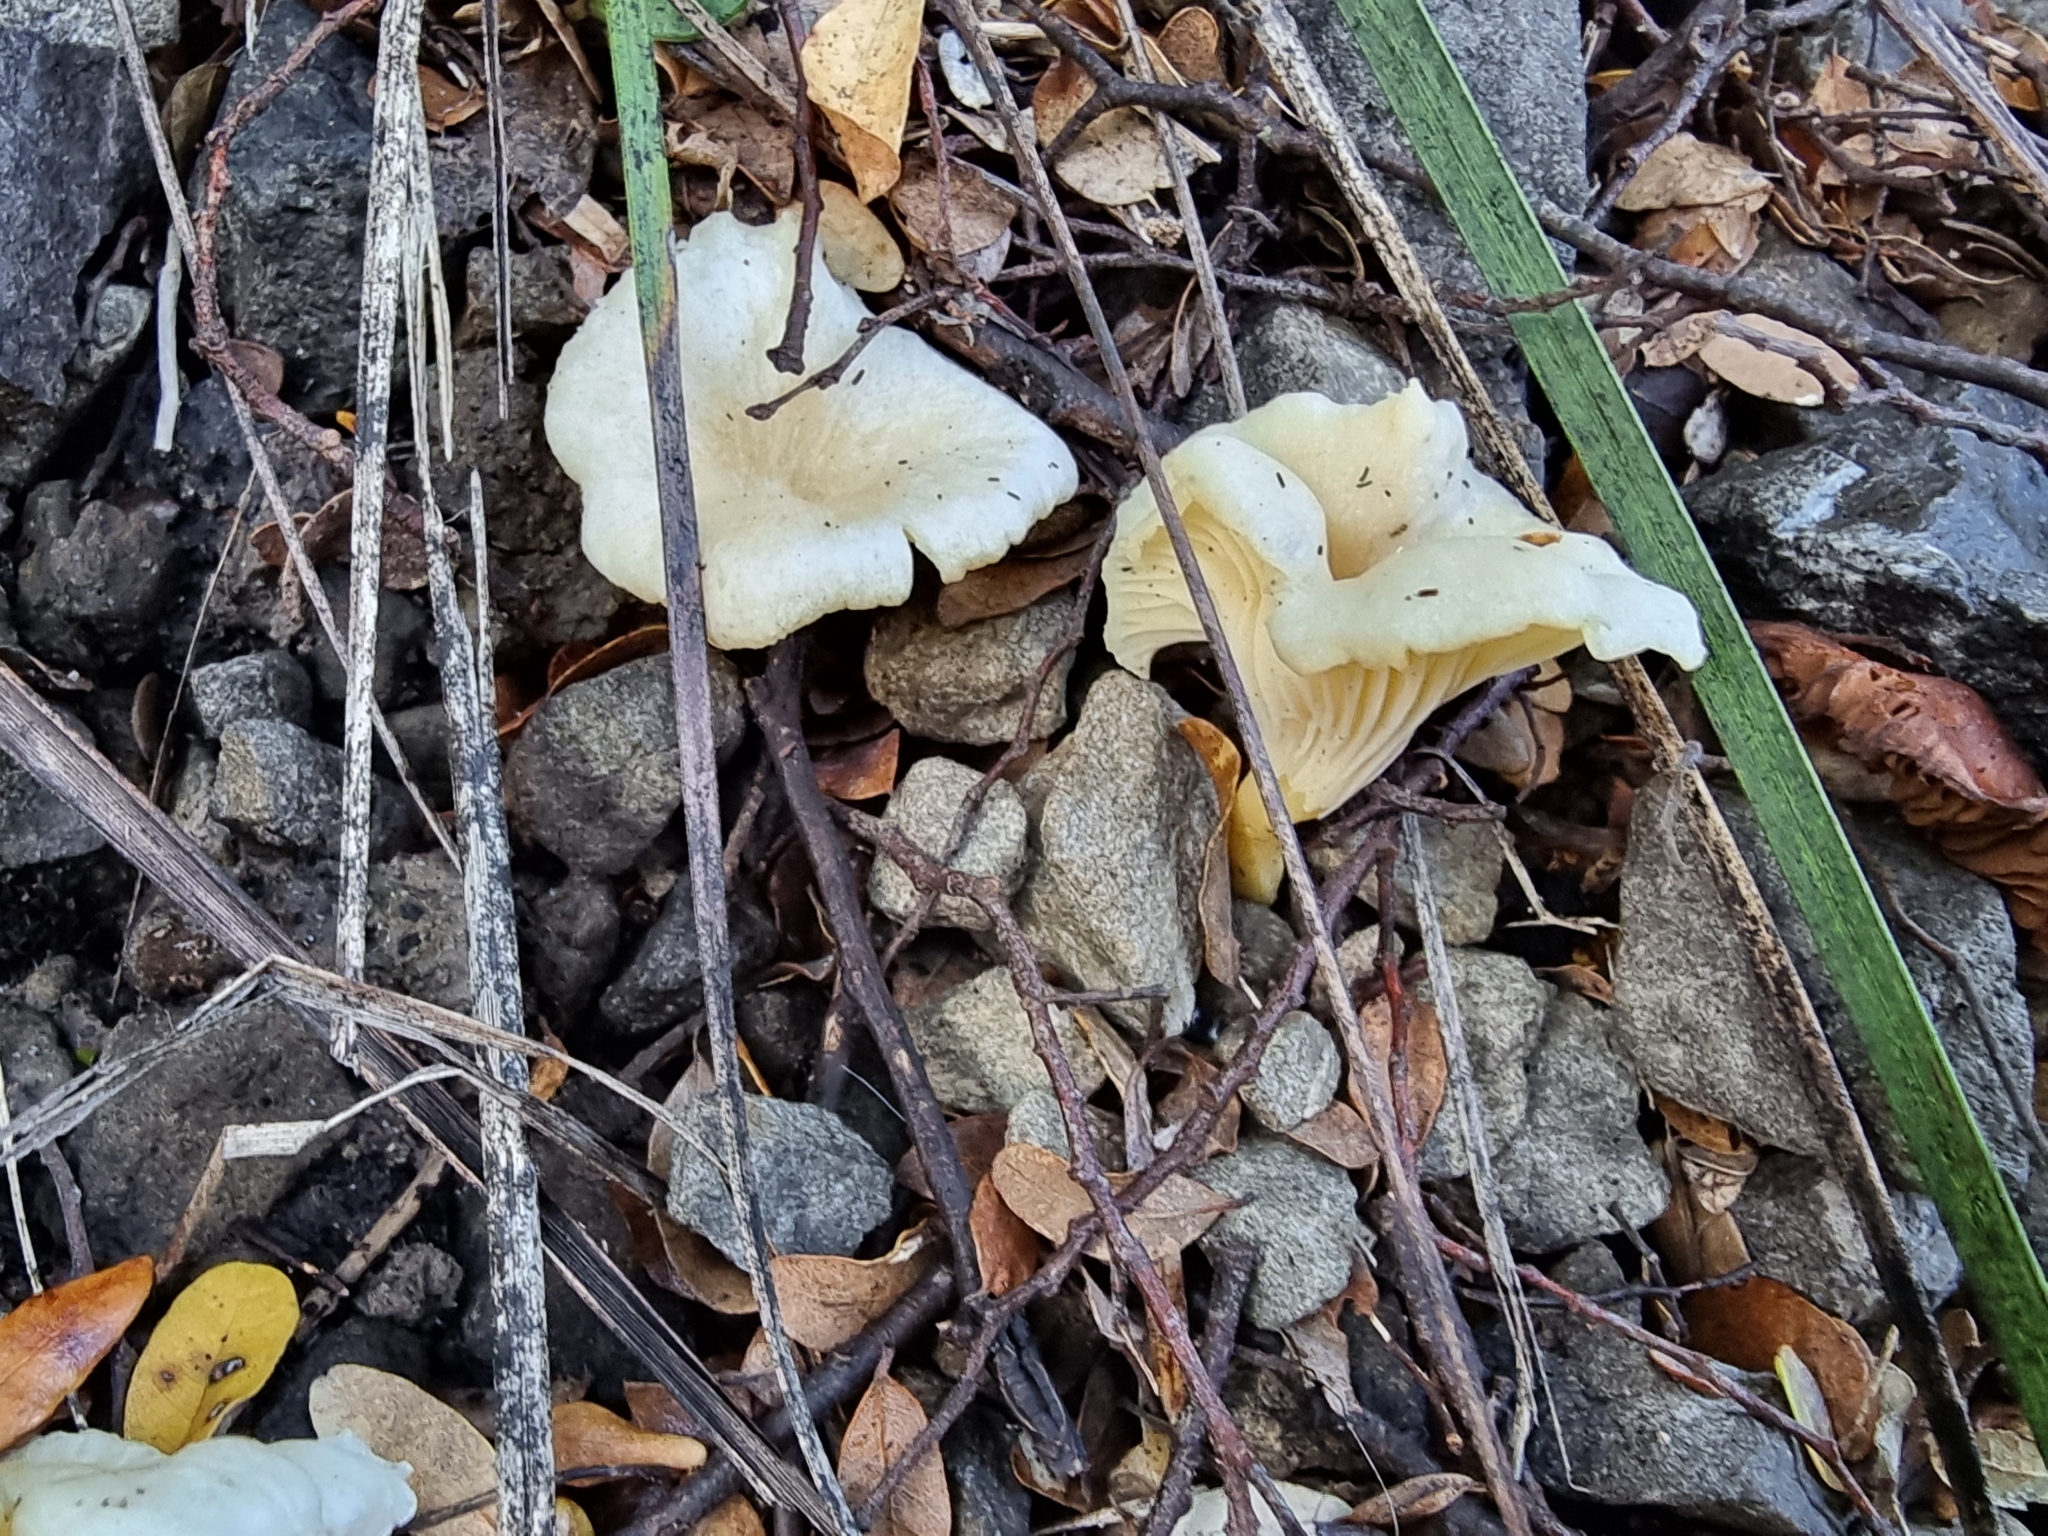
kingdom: Fungi
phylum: Basidiomycota
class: Agaricomycetes
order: Cantharellales
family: Hydnaceae
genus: Cantharellus
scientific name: Cantharellus wellingtonensis
